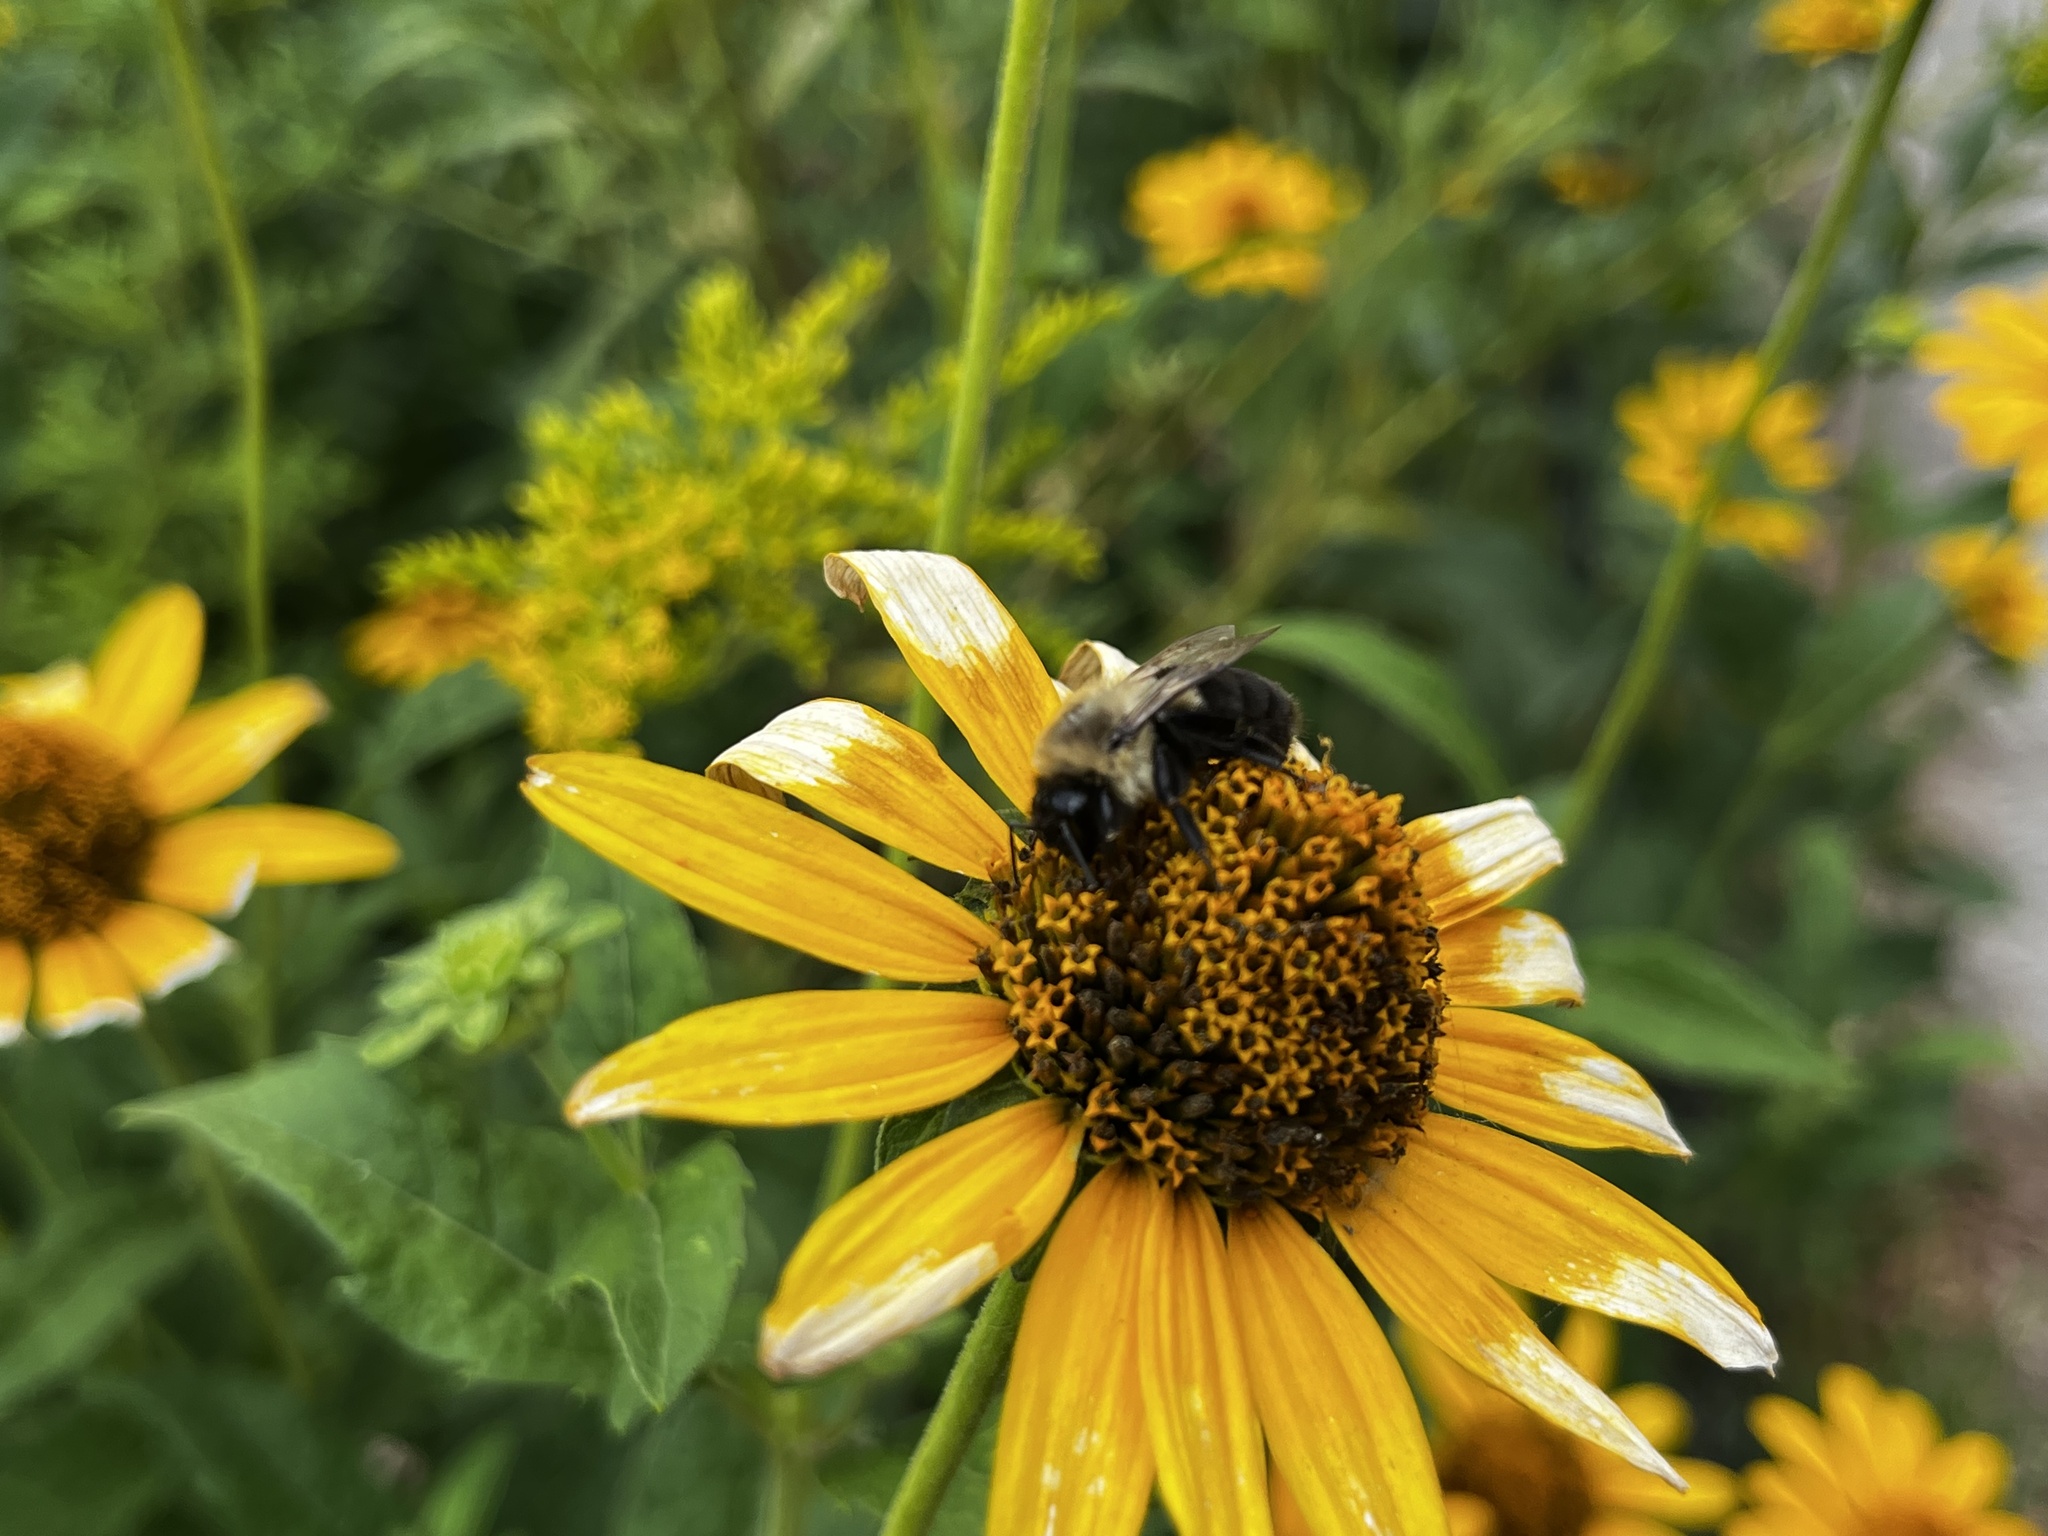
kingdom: Animalia
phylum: Arthropoda
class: Insecta
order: Hymenoptera
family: Apidae
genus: Bombus
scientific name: Bombus impatiens
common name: Common eastern bumble bee
